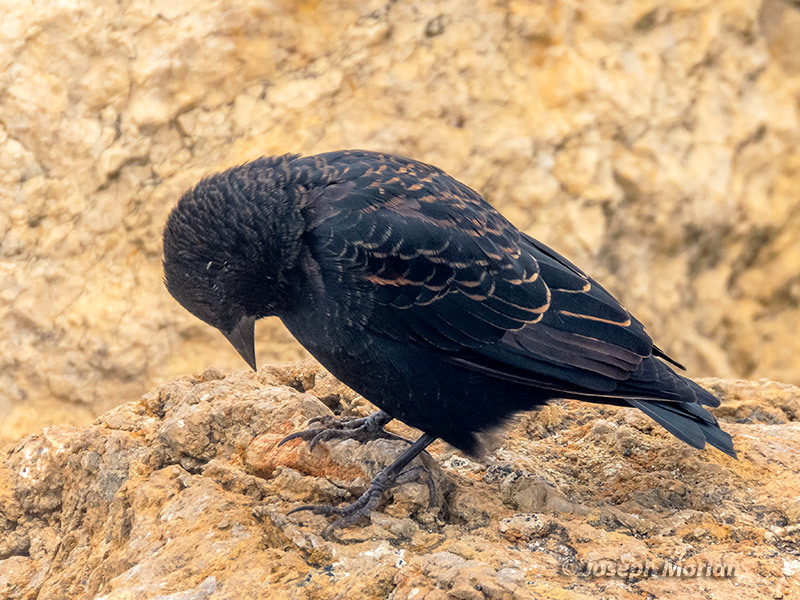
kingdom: Animalia
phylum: Chordata
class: Aves
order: Passeriformes
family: Icteridae
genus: Agelaius
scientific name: Agelaius phoeniceus
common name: Red-winged blackbird
